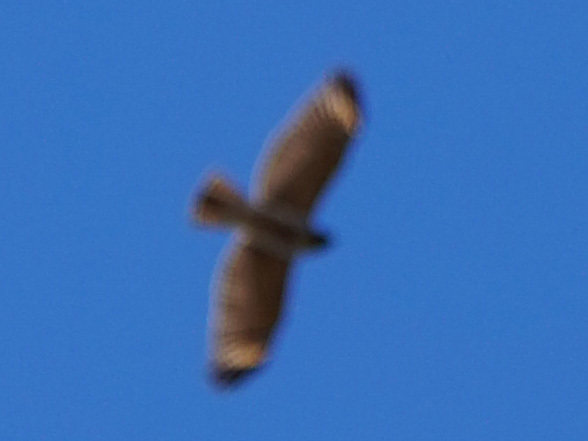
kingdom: Animalia
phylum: Chordata
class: Aves
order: Accipitriformes
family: Accipitridae
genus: Buteo
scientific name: Buteo lineatus
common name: Red-shouldered hawk
